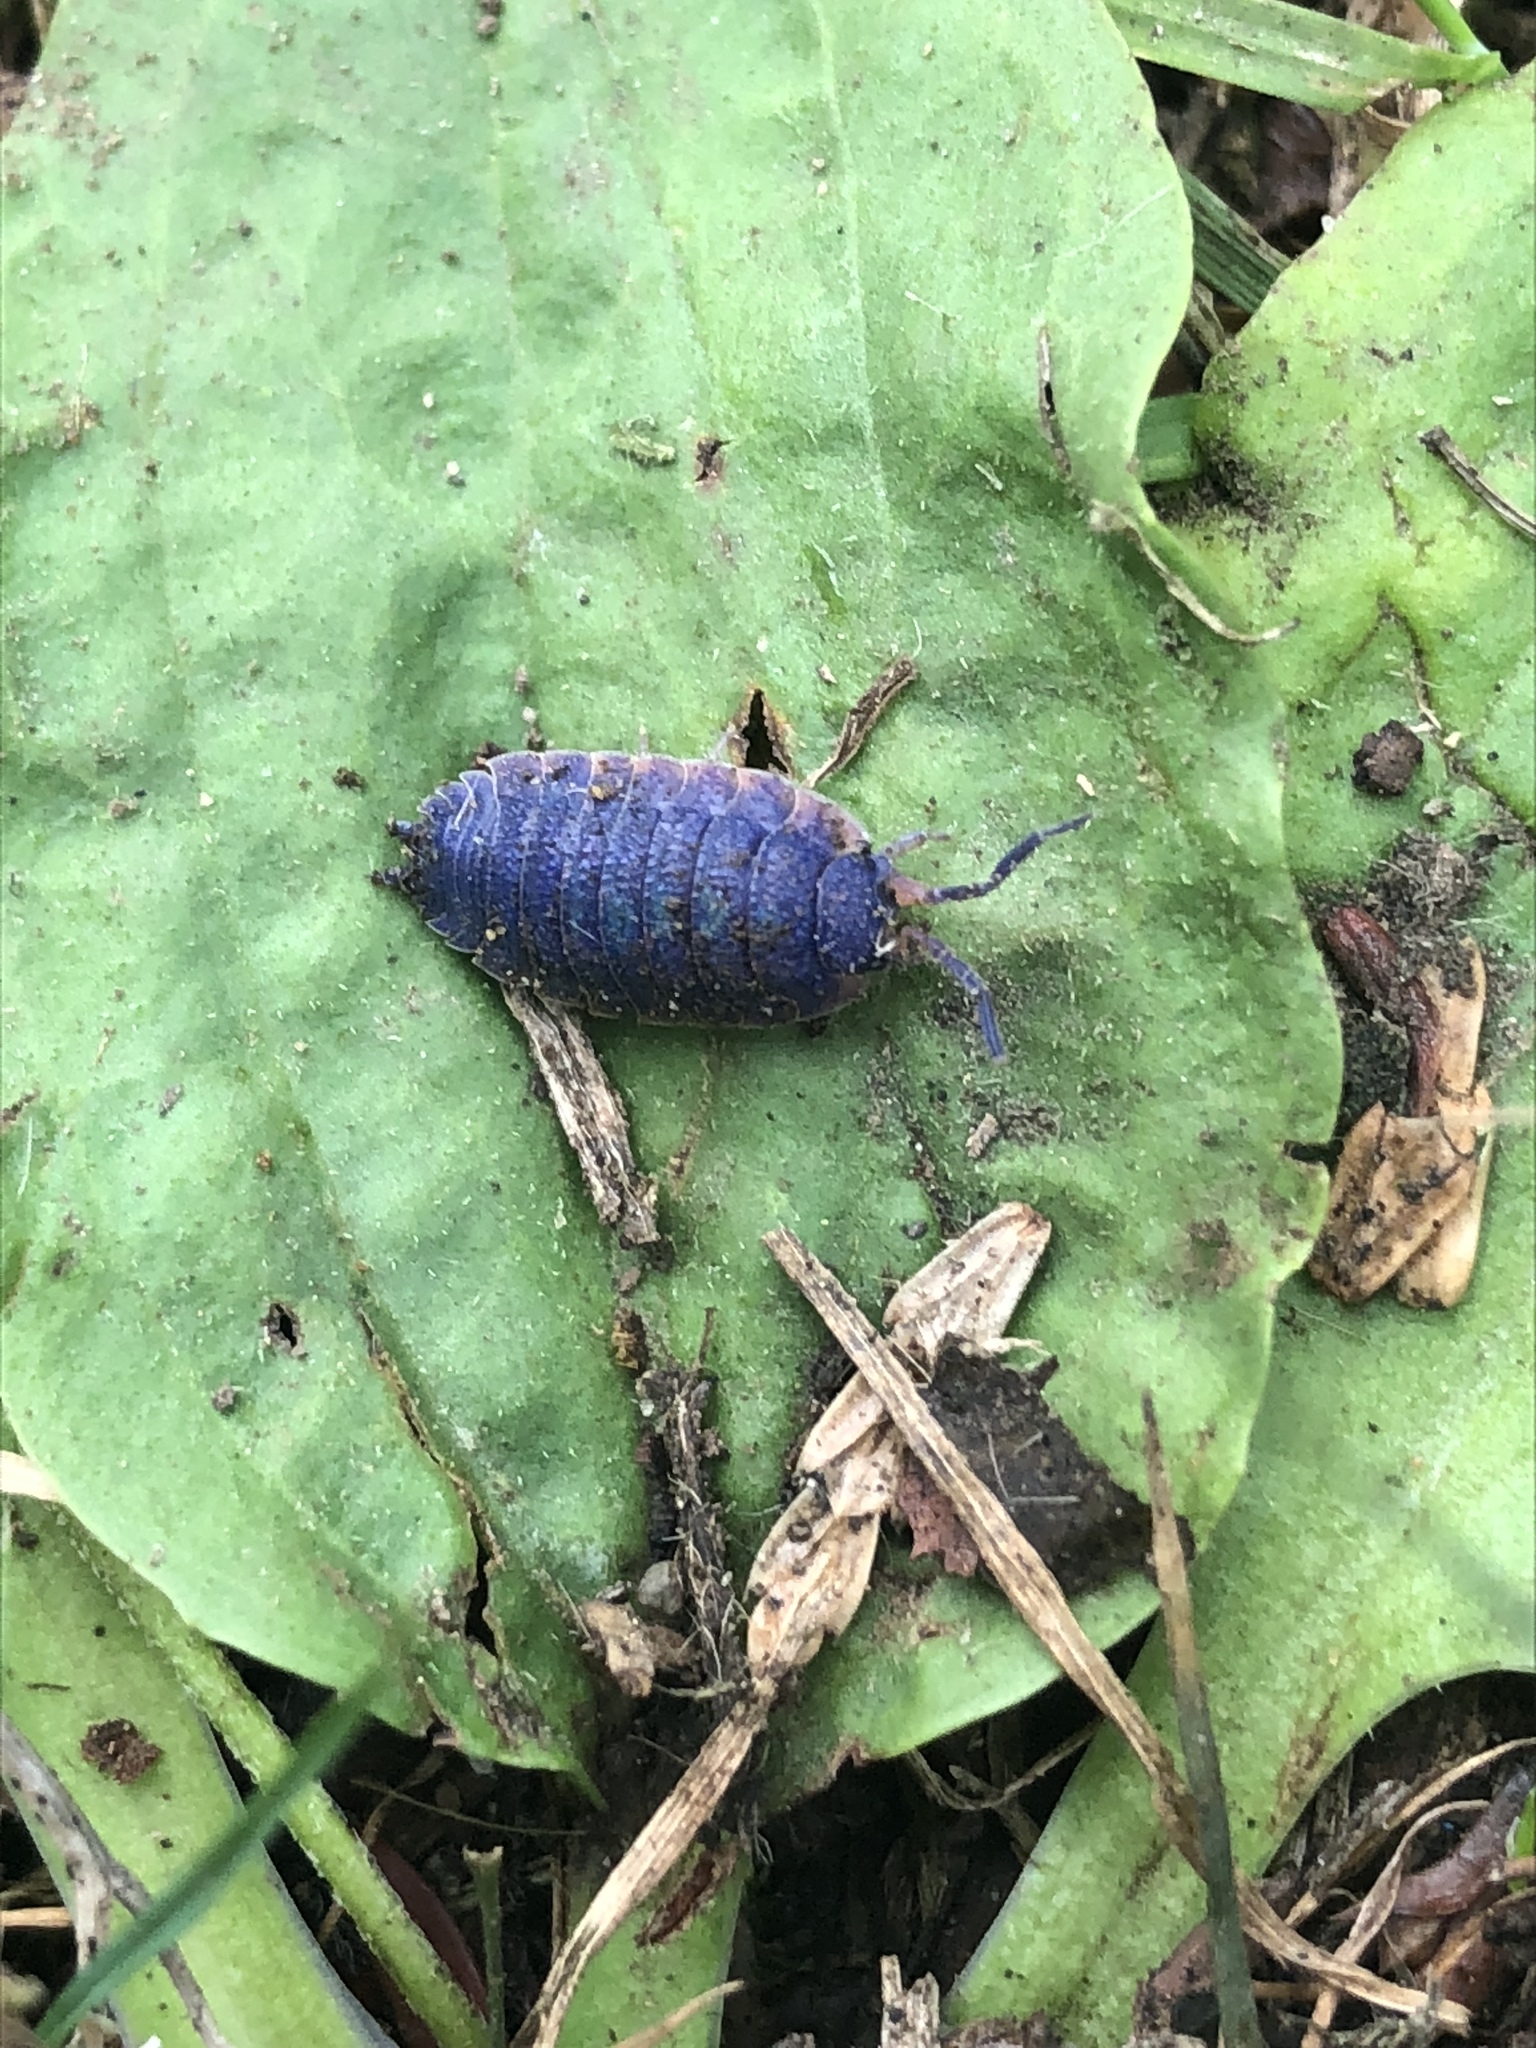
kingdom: Viruses
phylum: Nucleocytoviricota
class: Megaviricetes
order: Pimascovirales
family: Iridoviridae
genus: Iridovirus
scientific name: Iridovirus Invertebrate iridescent virus 31
